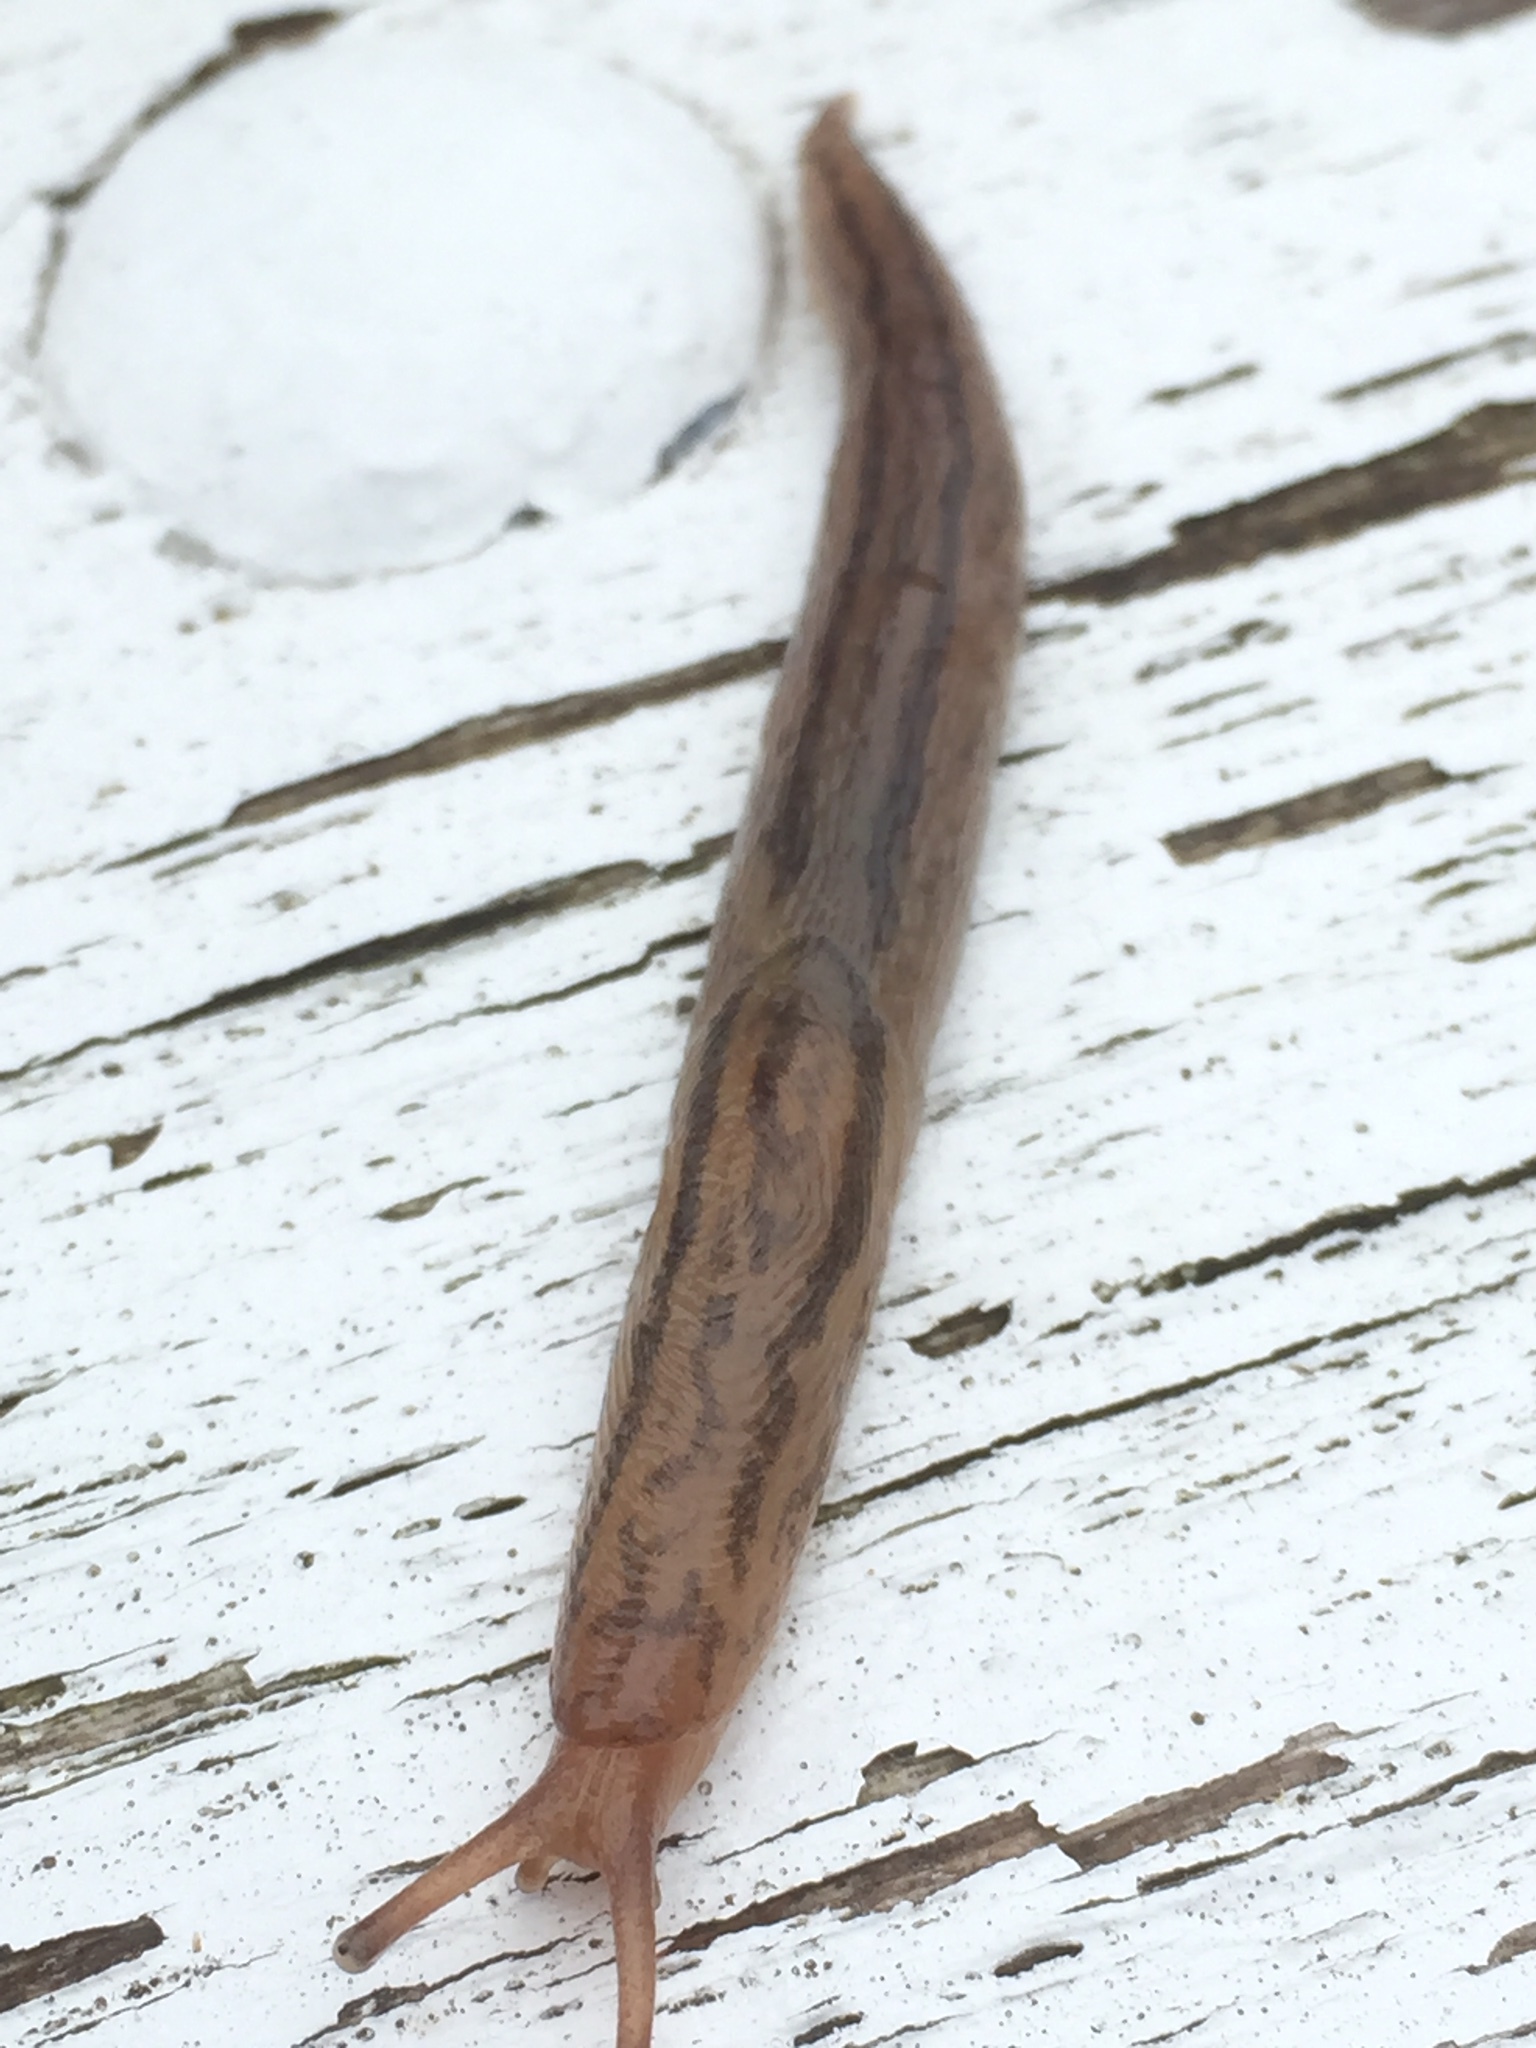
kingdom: Animalia
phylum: Mollusca
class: Gastropoda
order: Stylommatophora
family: Limacidae
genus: Ambigolimax
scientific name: Ambigolimax
